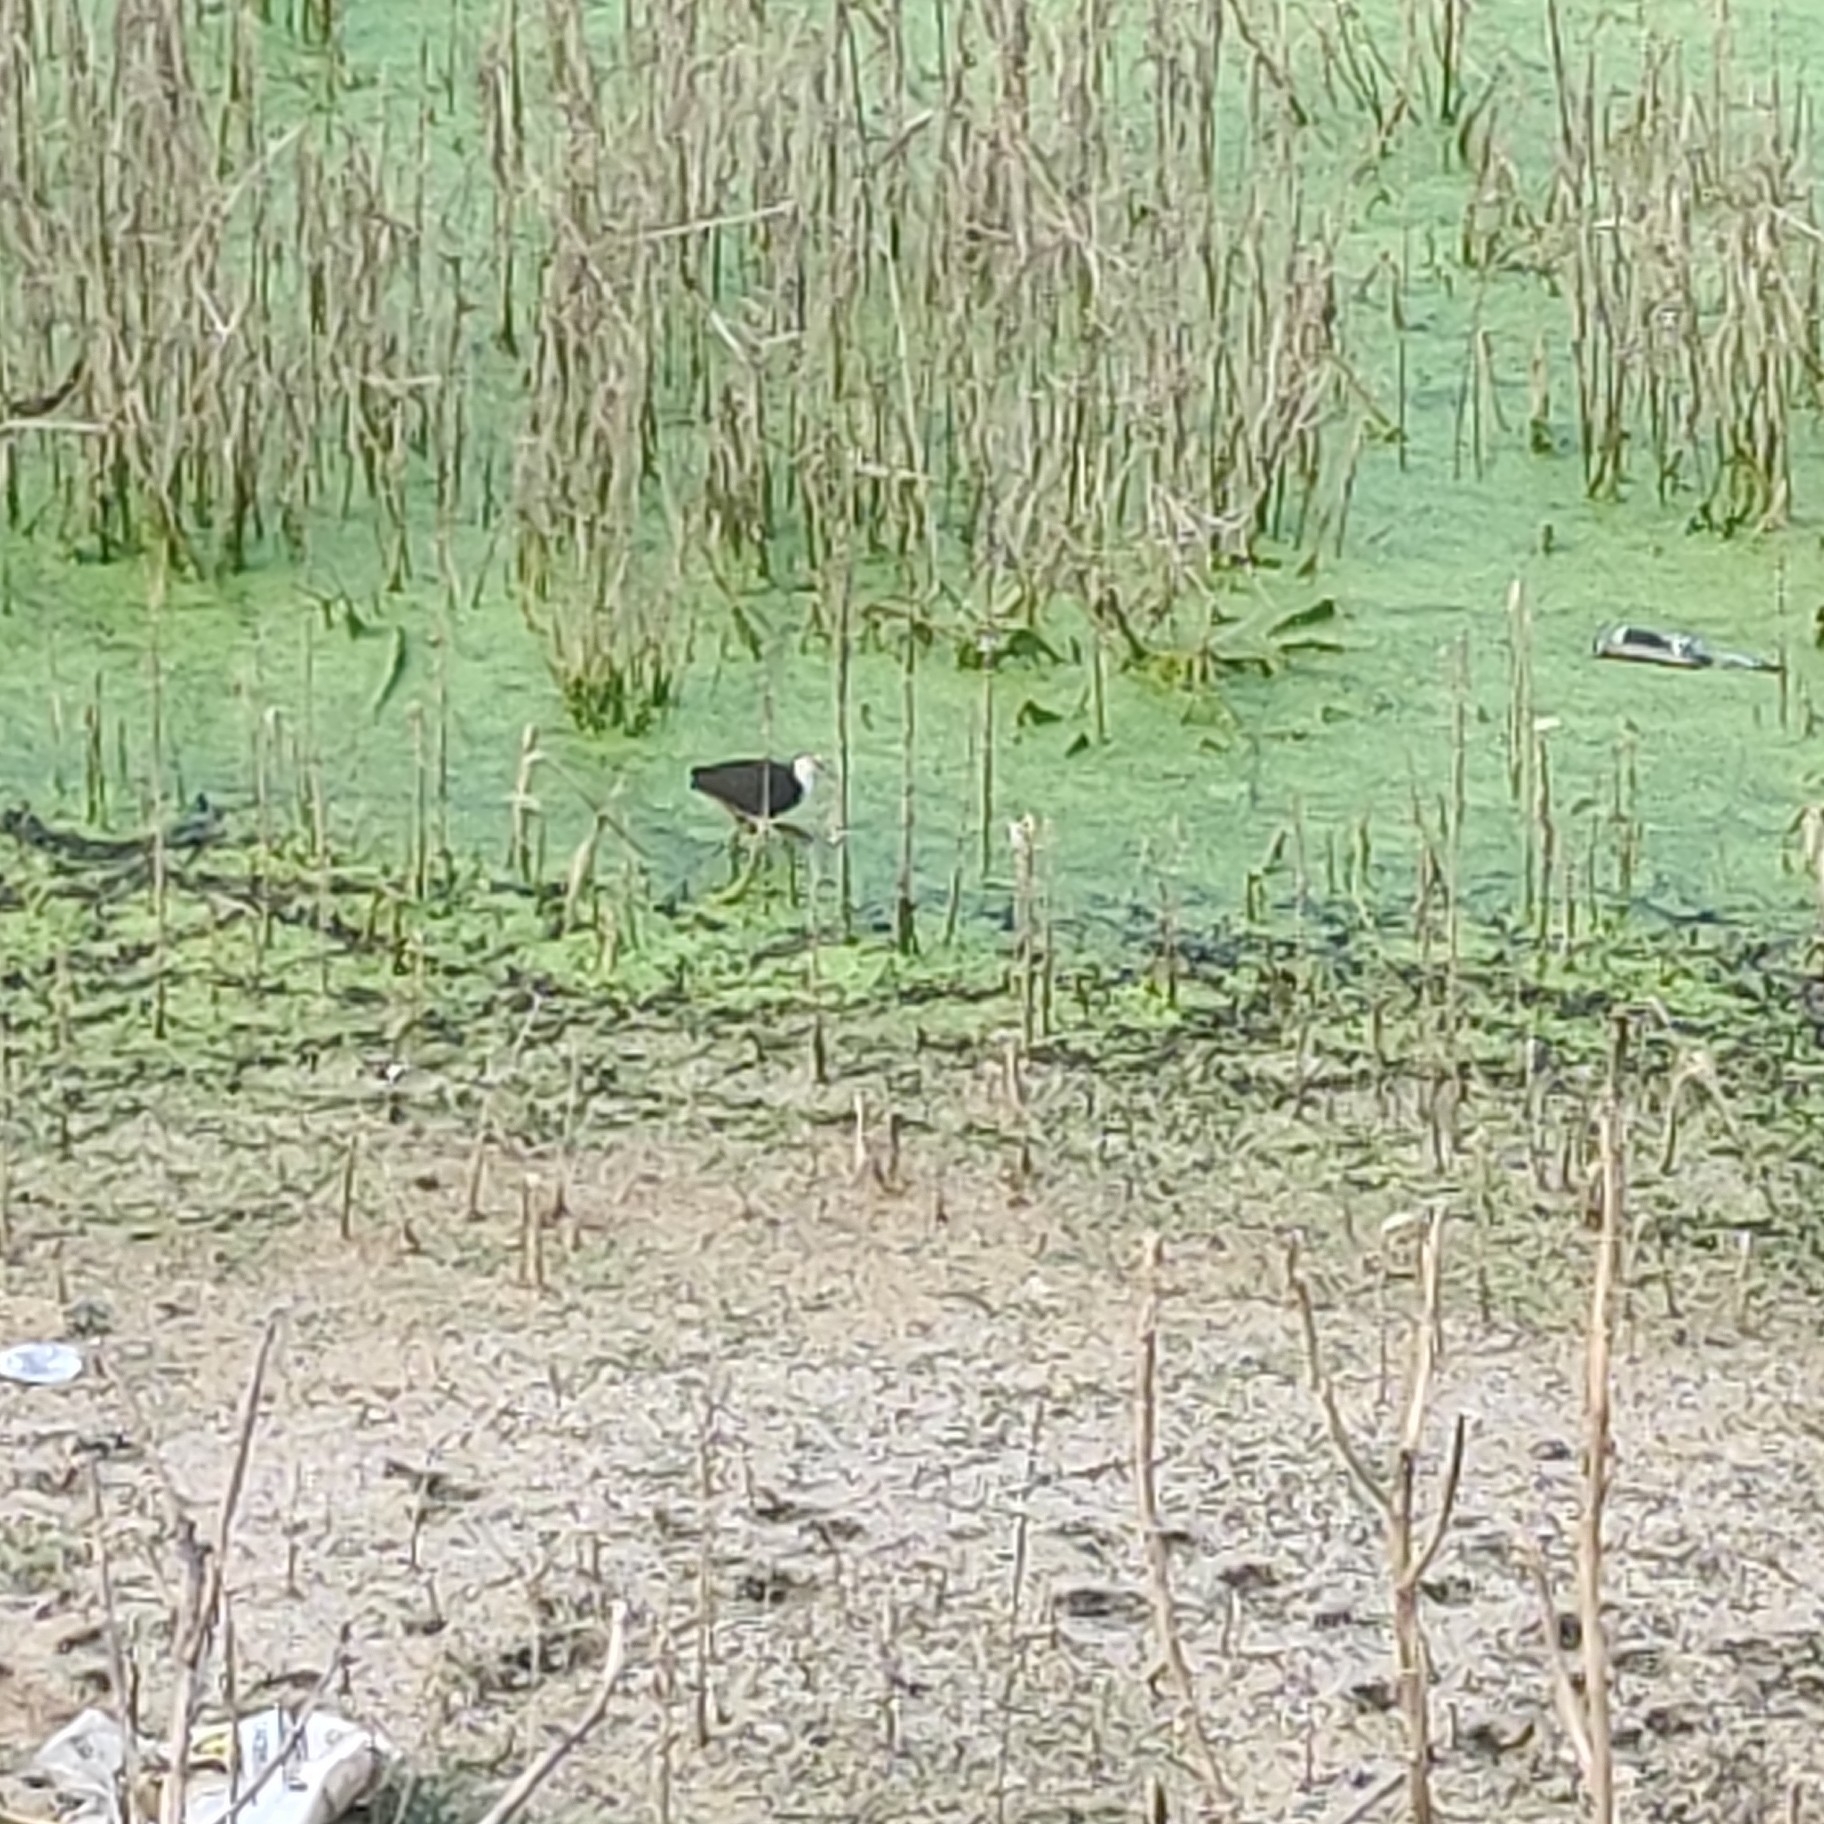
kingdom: Animalia
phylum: Chordata
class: Aves
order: Gruiformes
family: Rallidae
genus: Amaurornis
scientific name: Amaurornis phoenicurus
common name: White-breasted waterhen
